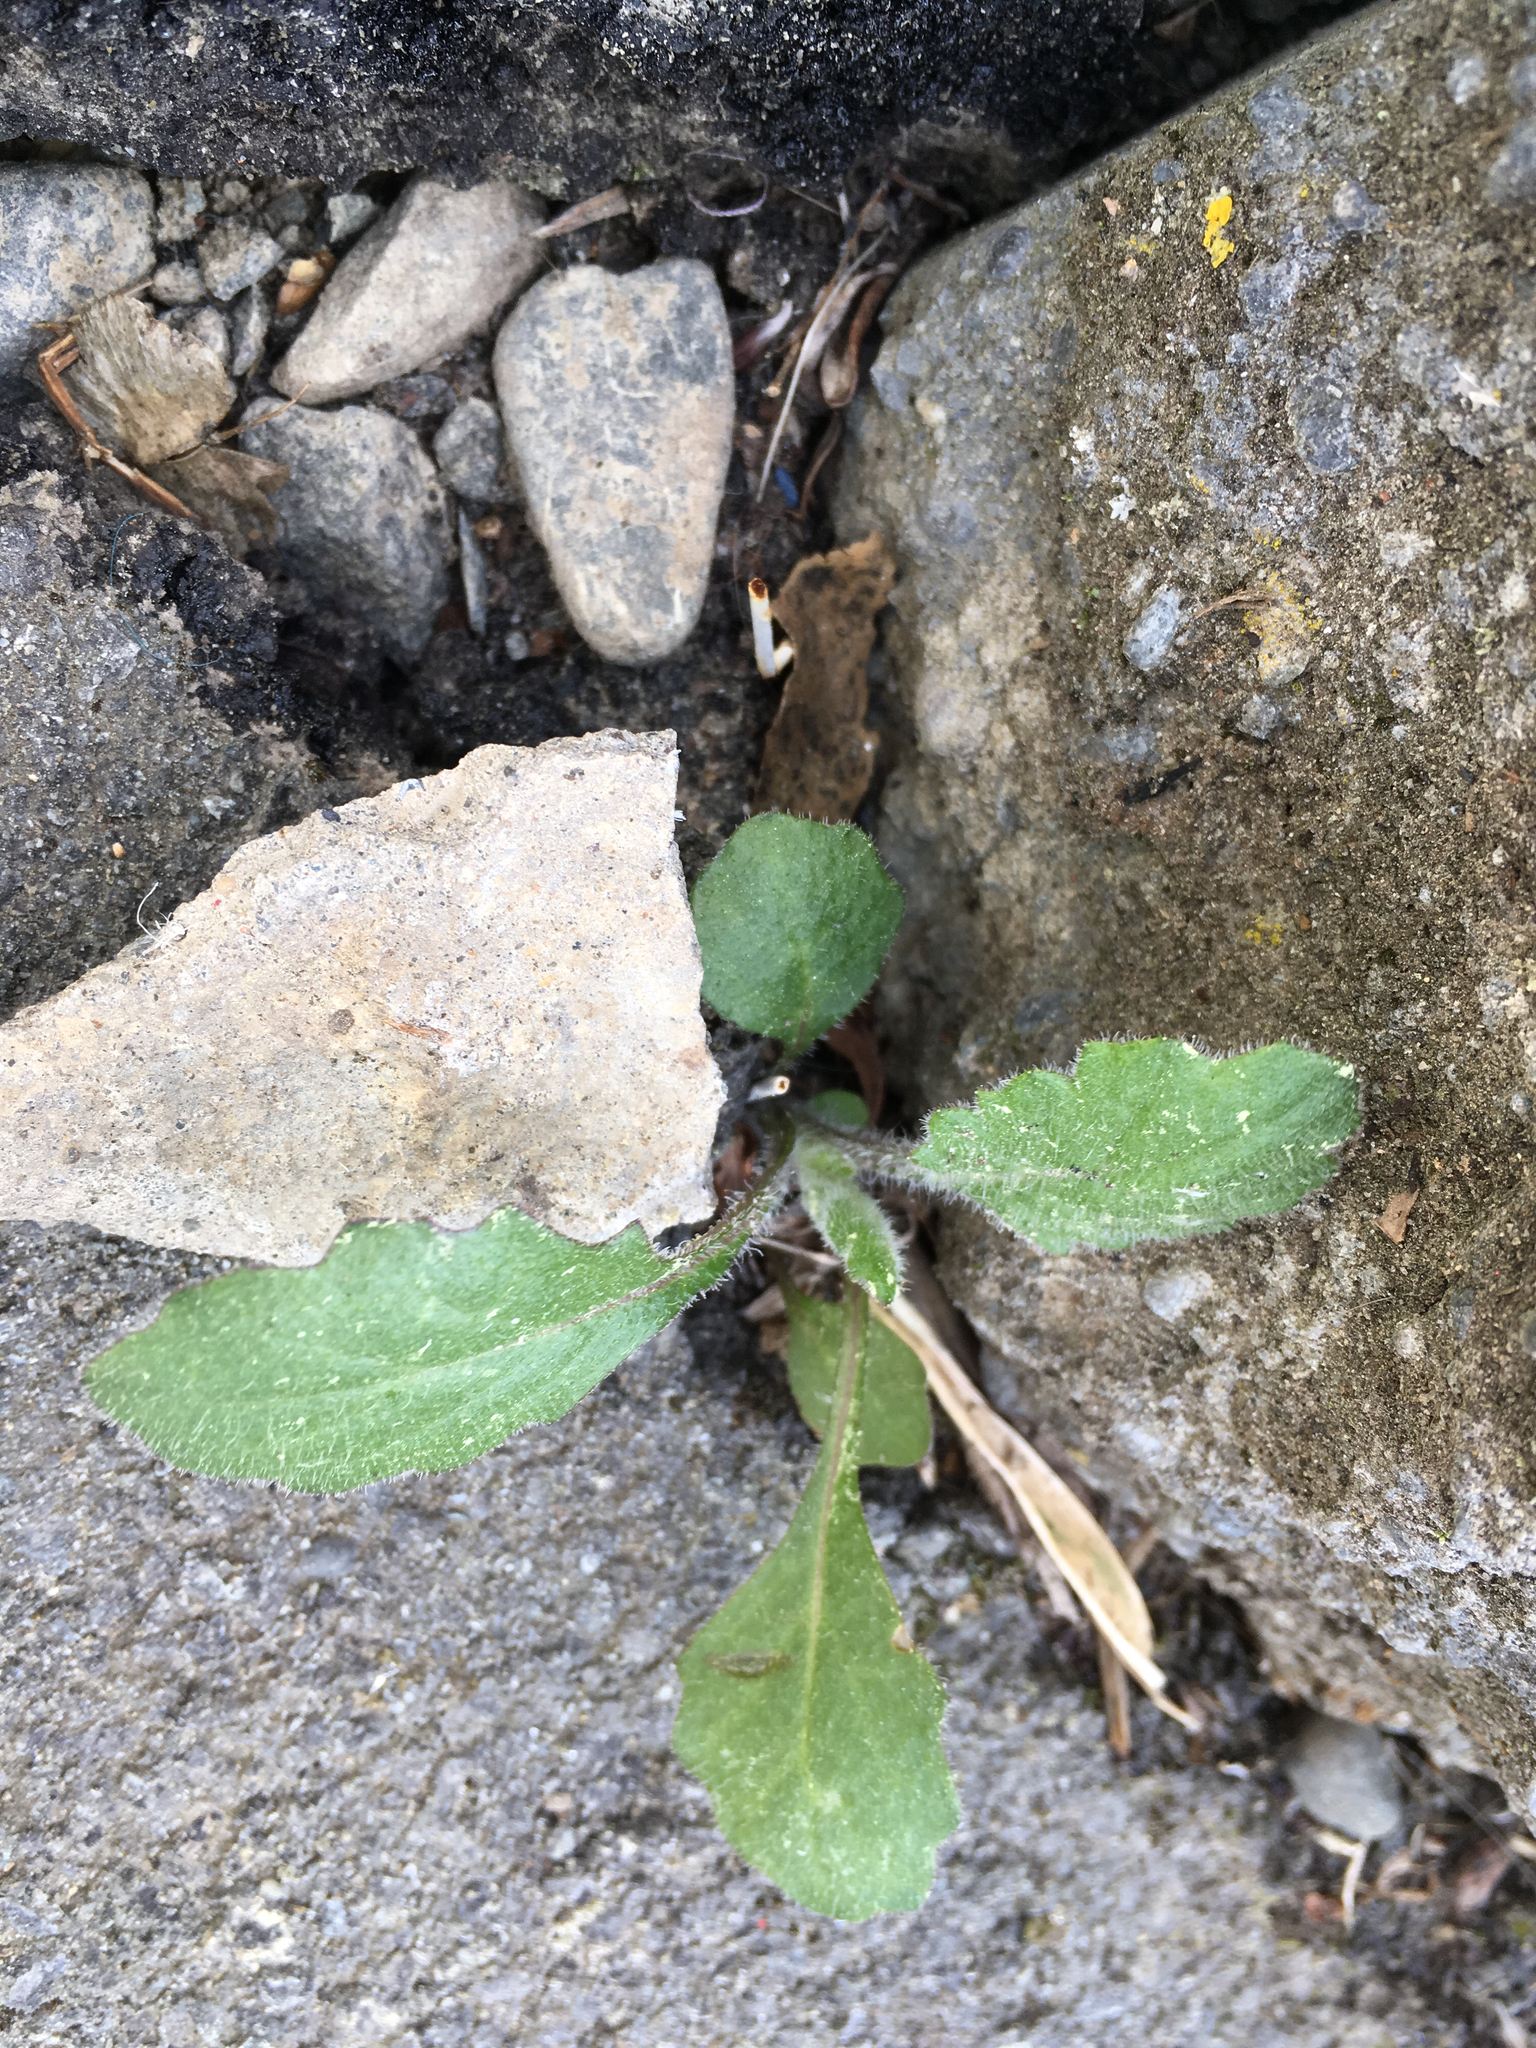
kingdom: Plantae
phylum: Tracheophyta
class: Magnoliopsida
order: Asterales
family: Asteraceae
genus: Senecio
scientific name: Senecio glomeratus
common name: Cutleaf burnweed
